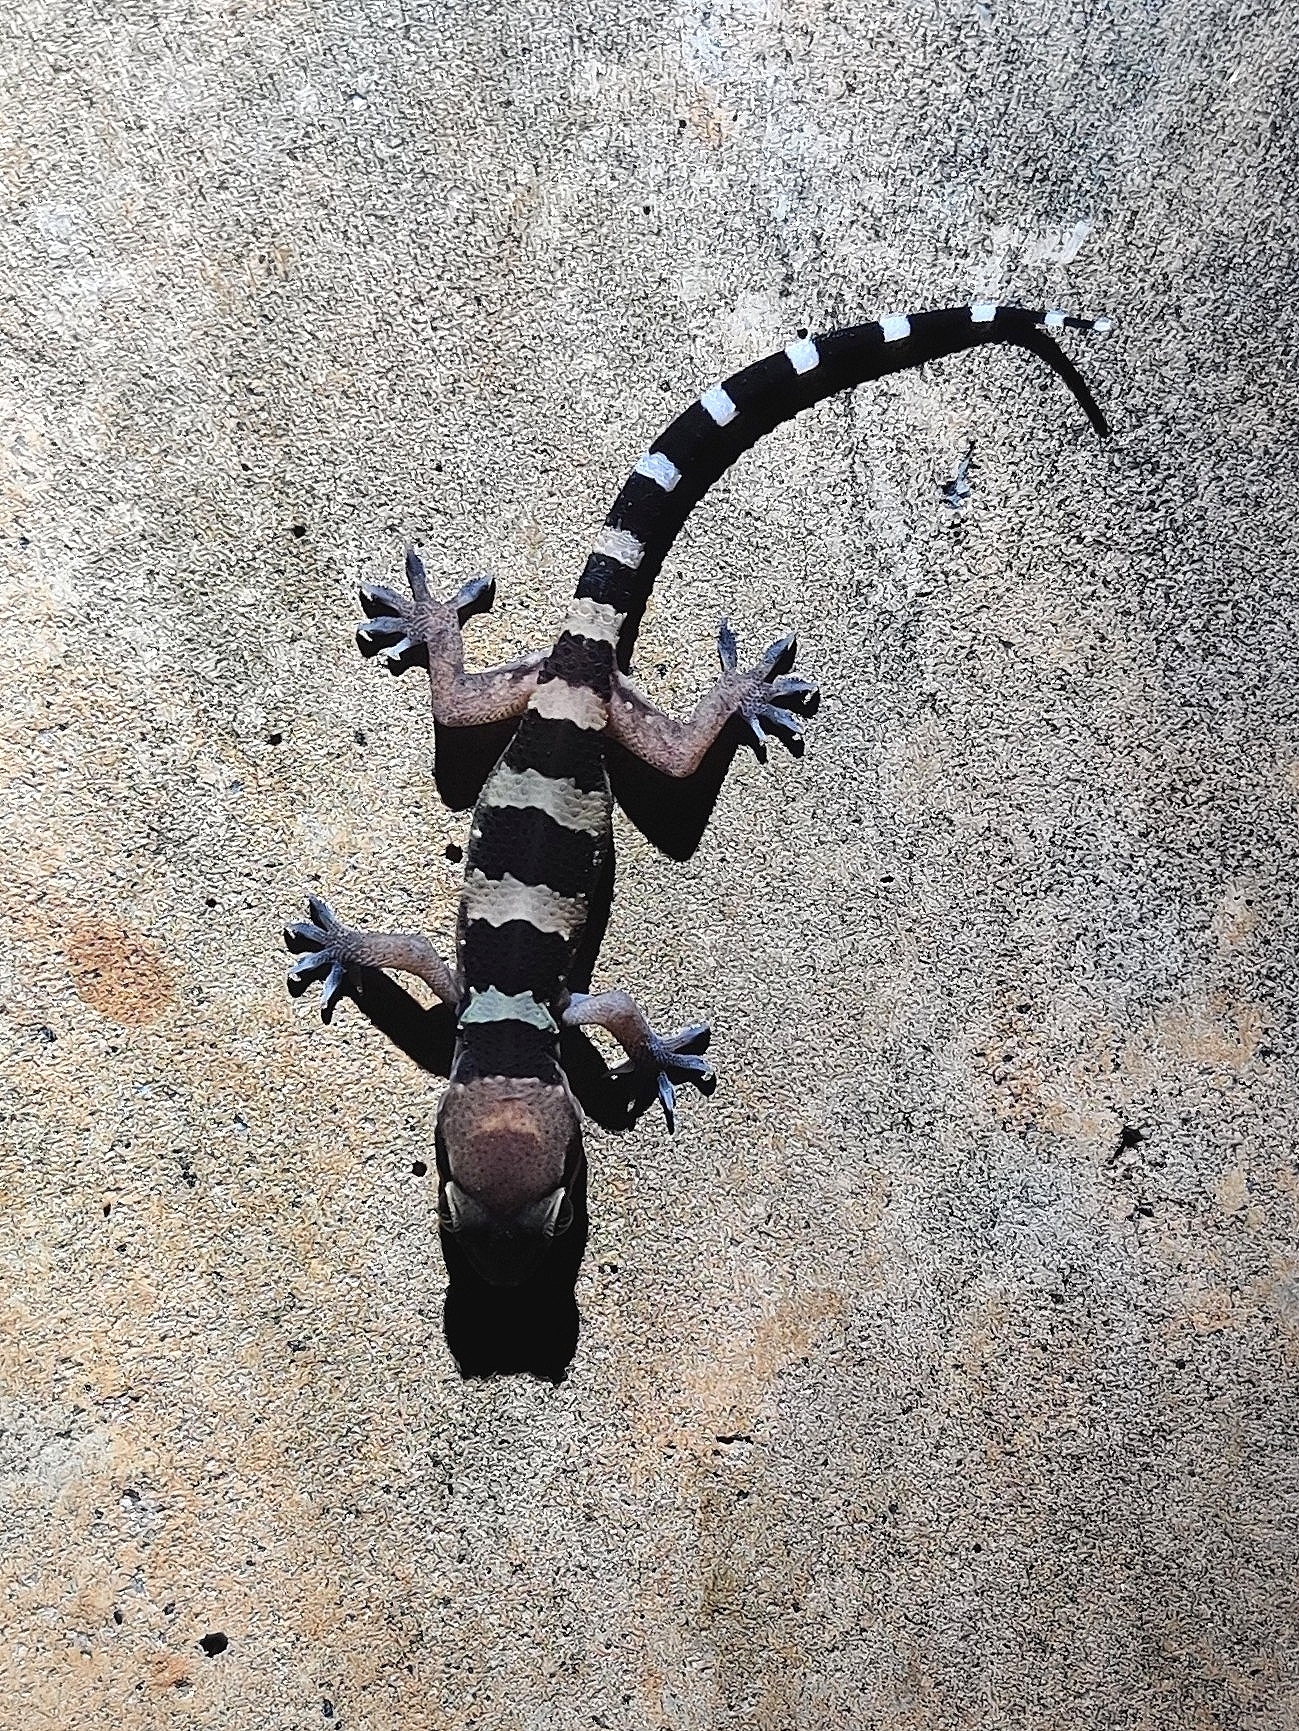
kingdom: Animalia
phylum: Chordata
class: Squamata
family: Gekkonidae
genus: Hemidactylus
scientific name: Hemidactylus whitakeri
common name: Whitaker’s termite hill gecko
